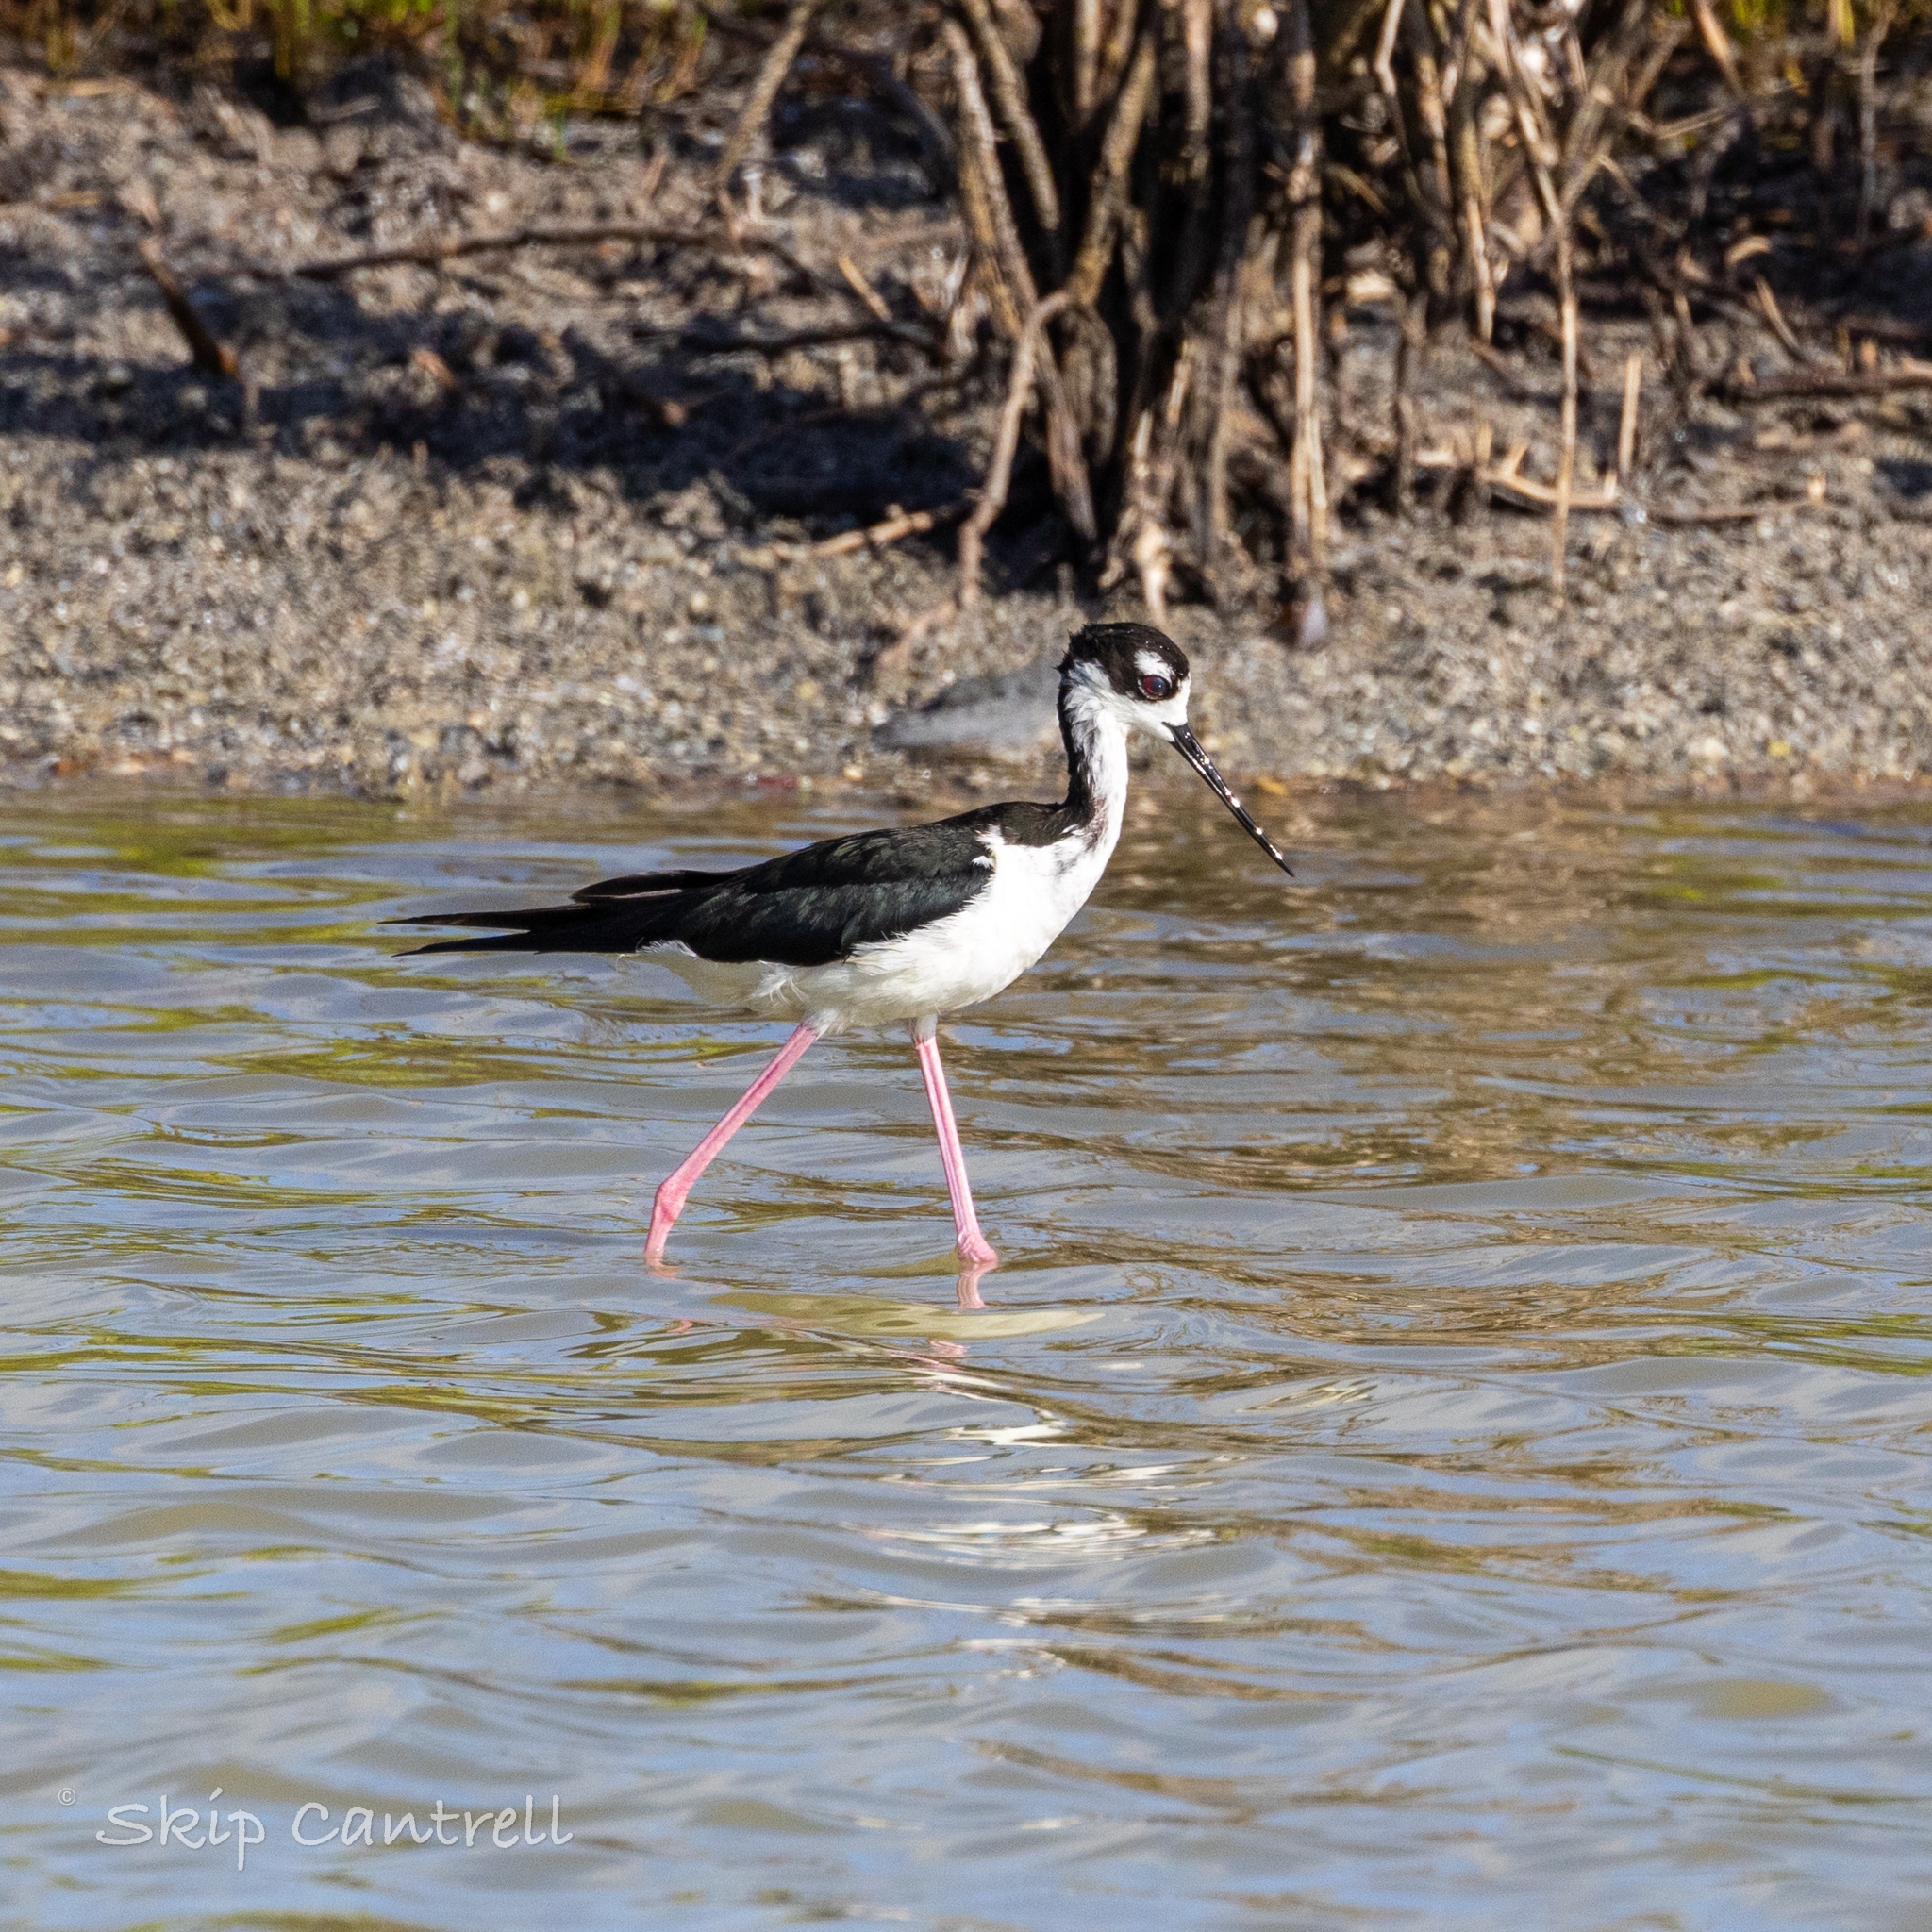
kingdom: Animalia
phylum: Chordata
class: Aves
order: Charadriiformes
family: Recurvirostridae
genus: Himantopus
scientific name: Himantopus mexicanus
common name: Black-necked stilt
